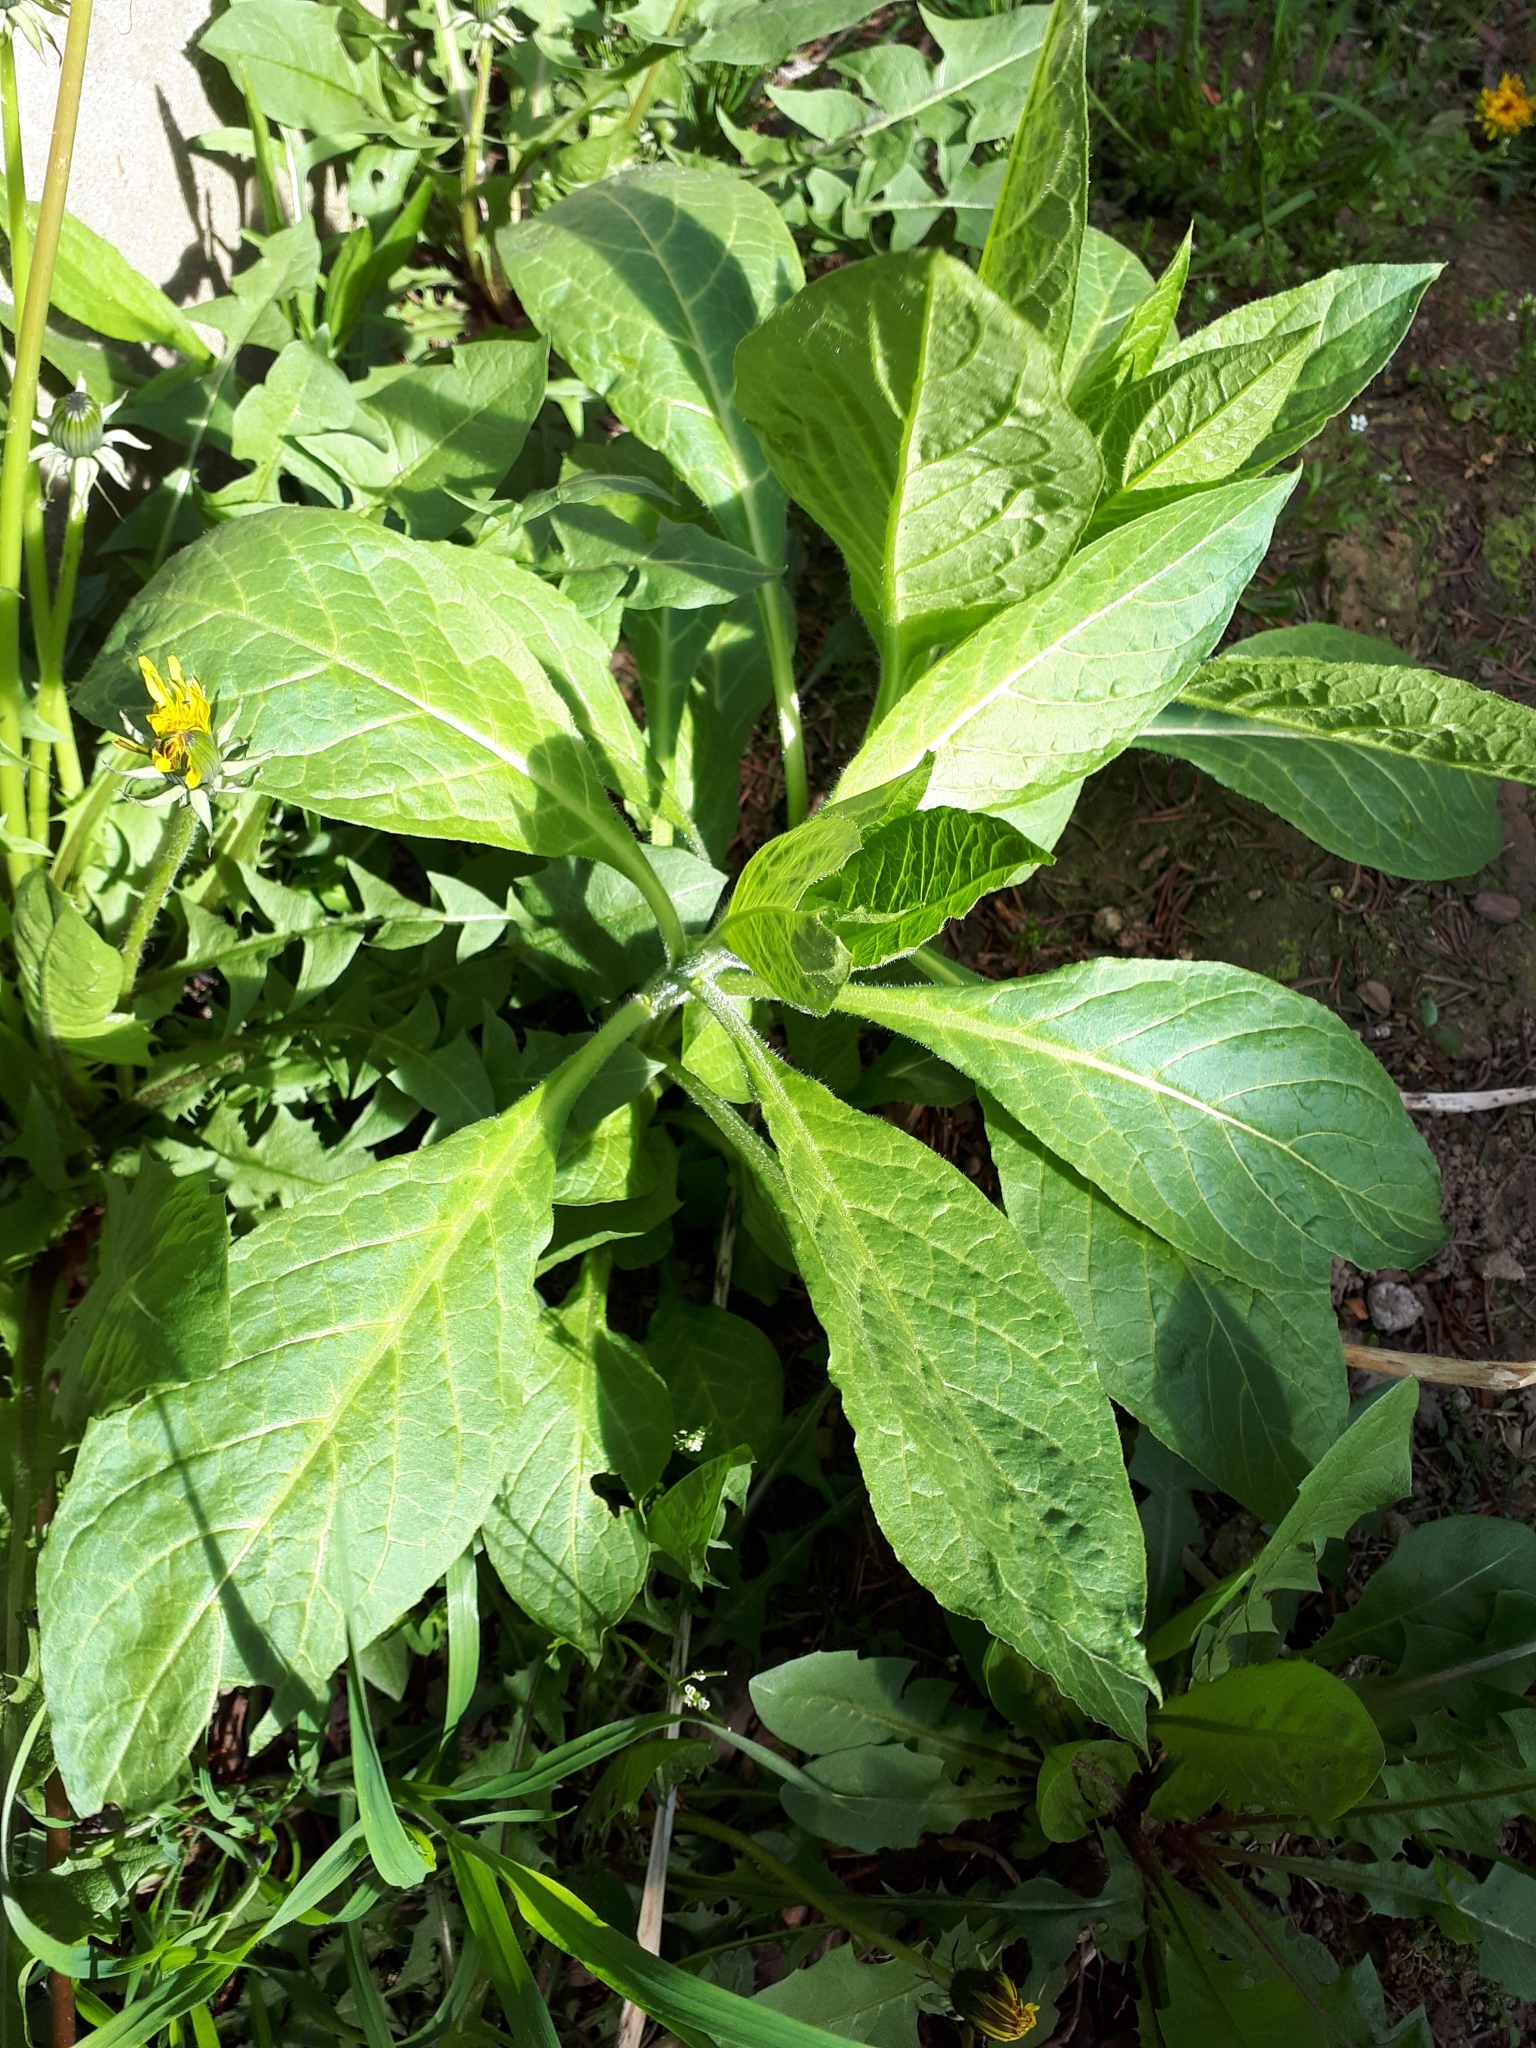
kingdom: Plantae
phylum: Tracheophyta
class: Magnoliopsida
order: Solanales
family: Solanaceae
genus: Atropa
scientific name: Atropa belladonna
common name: Deadly nightshade
